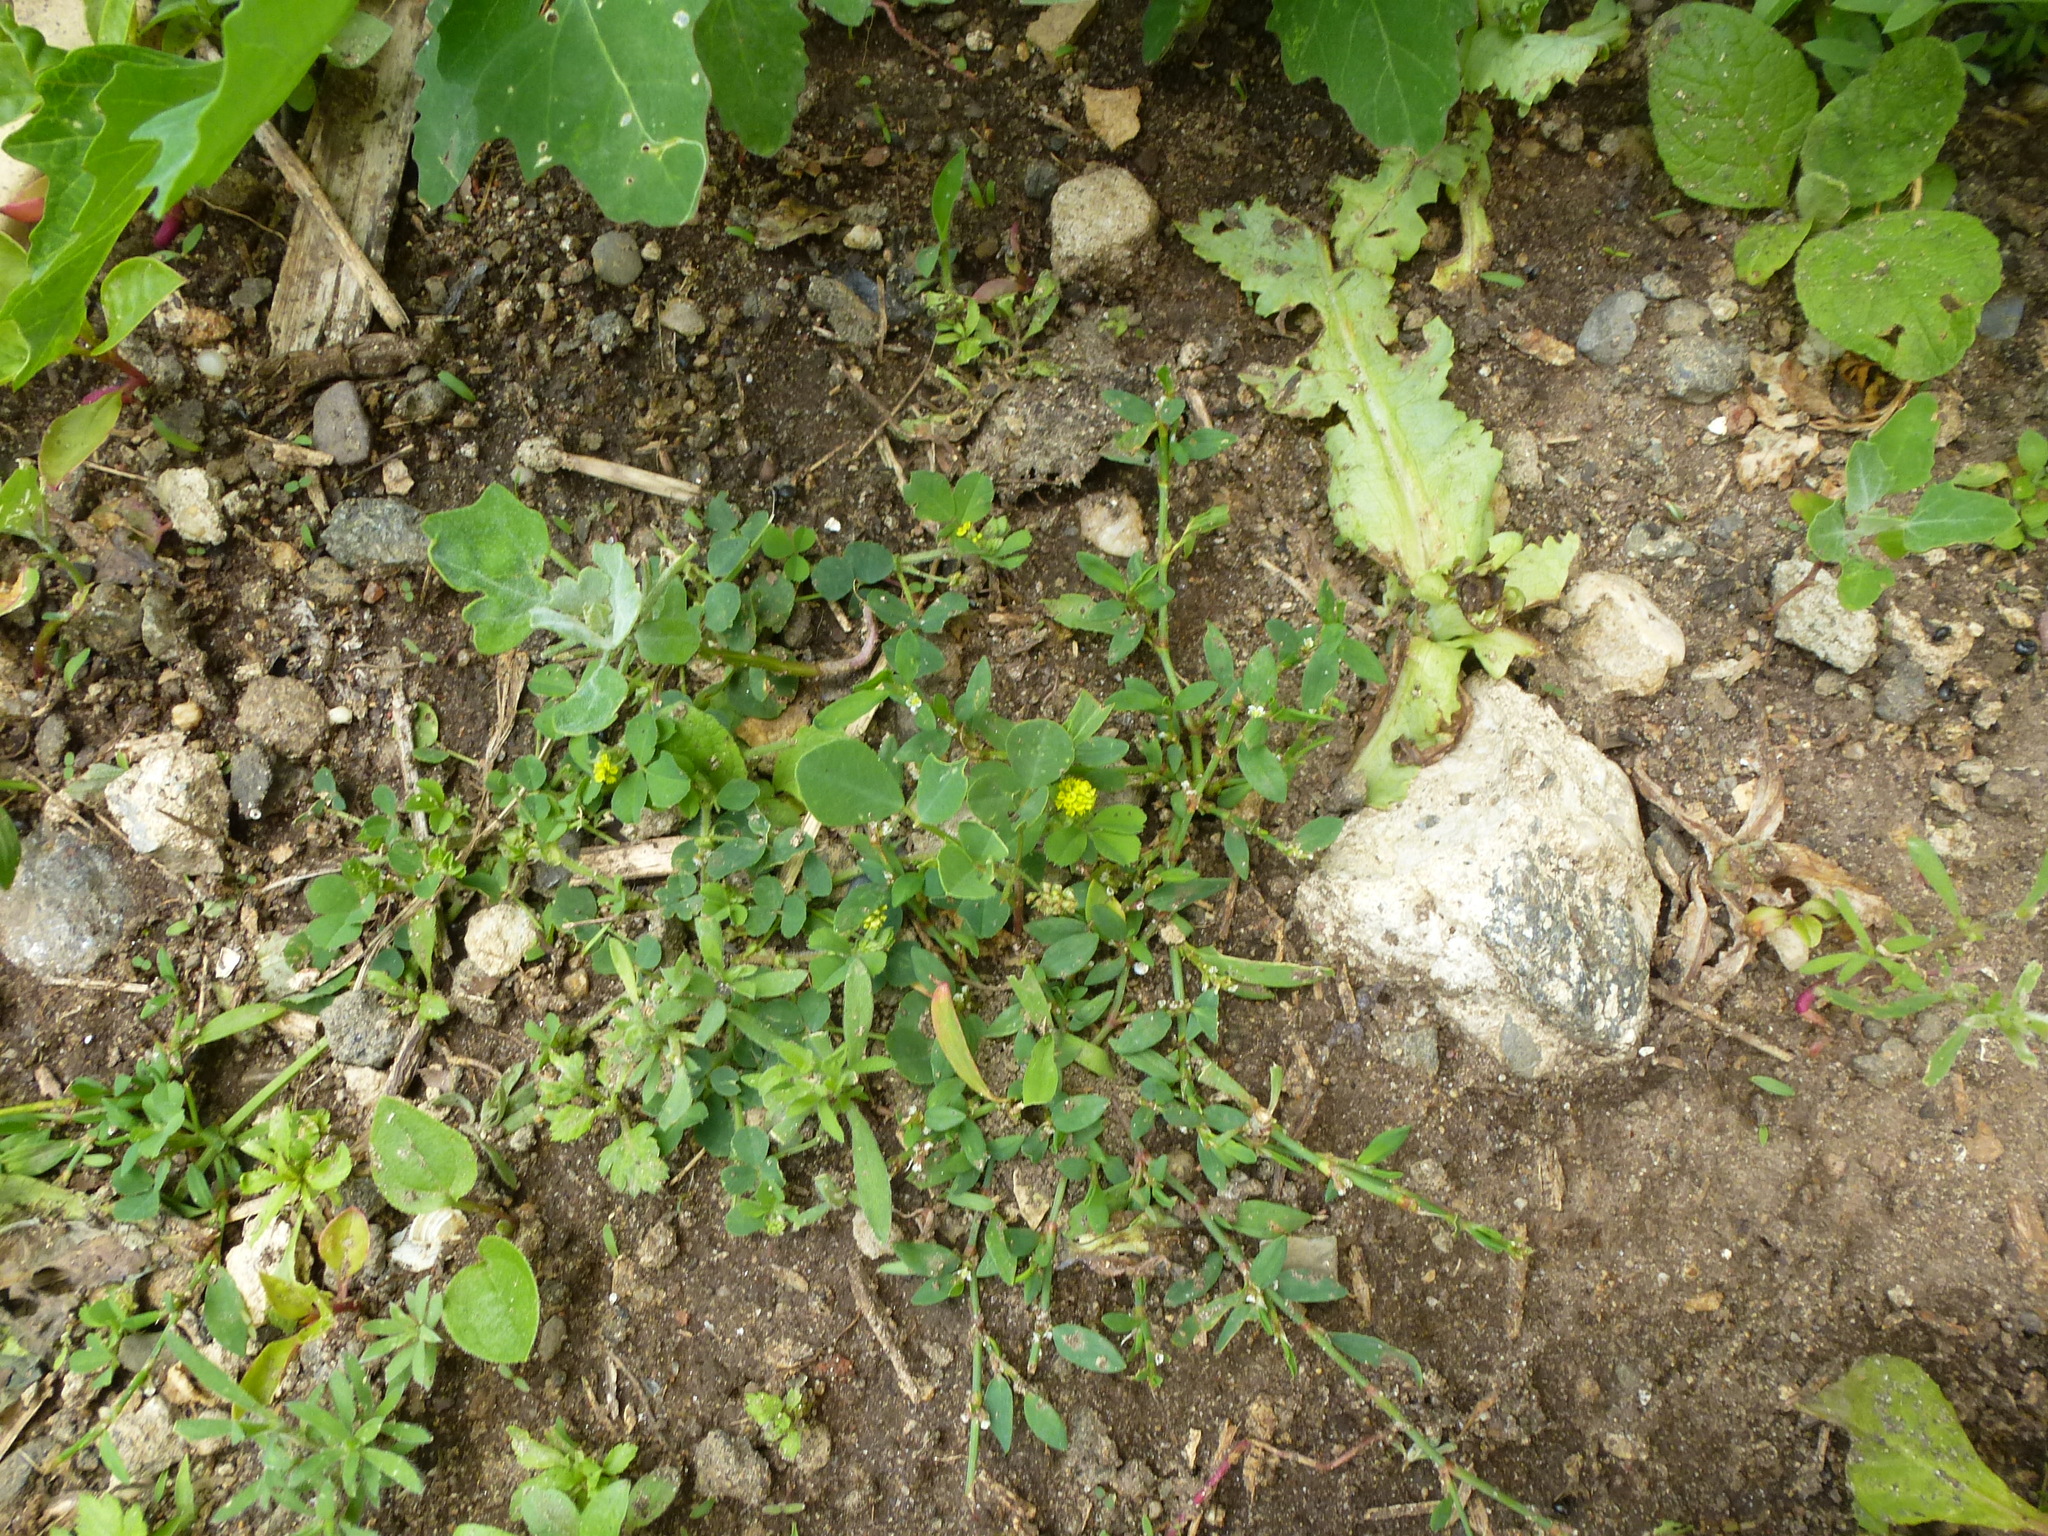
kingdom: Plantae
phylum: Tracheophyta
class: Magnoliopsida
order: Fabales
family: Fabaceae
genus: Medicago
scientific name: Medicago lupulina
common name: Black medick
